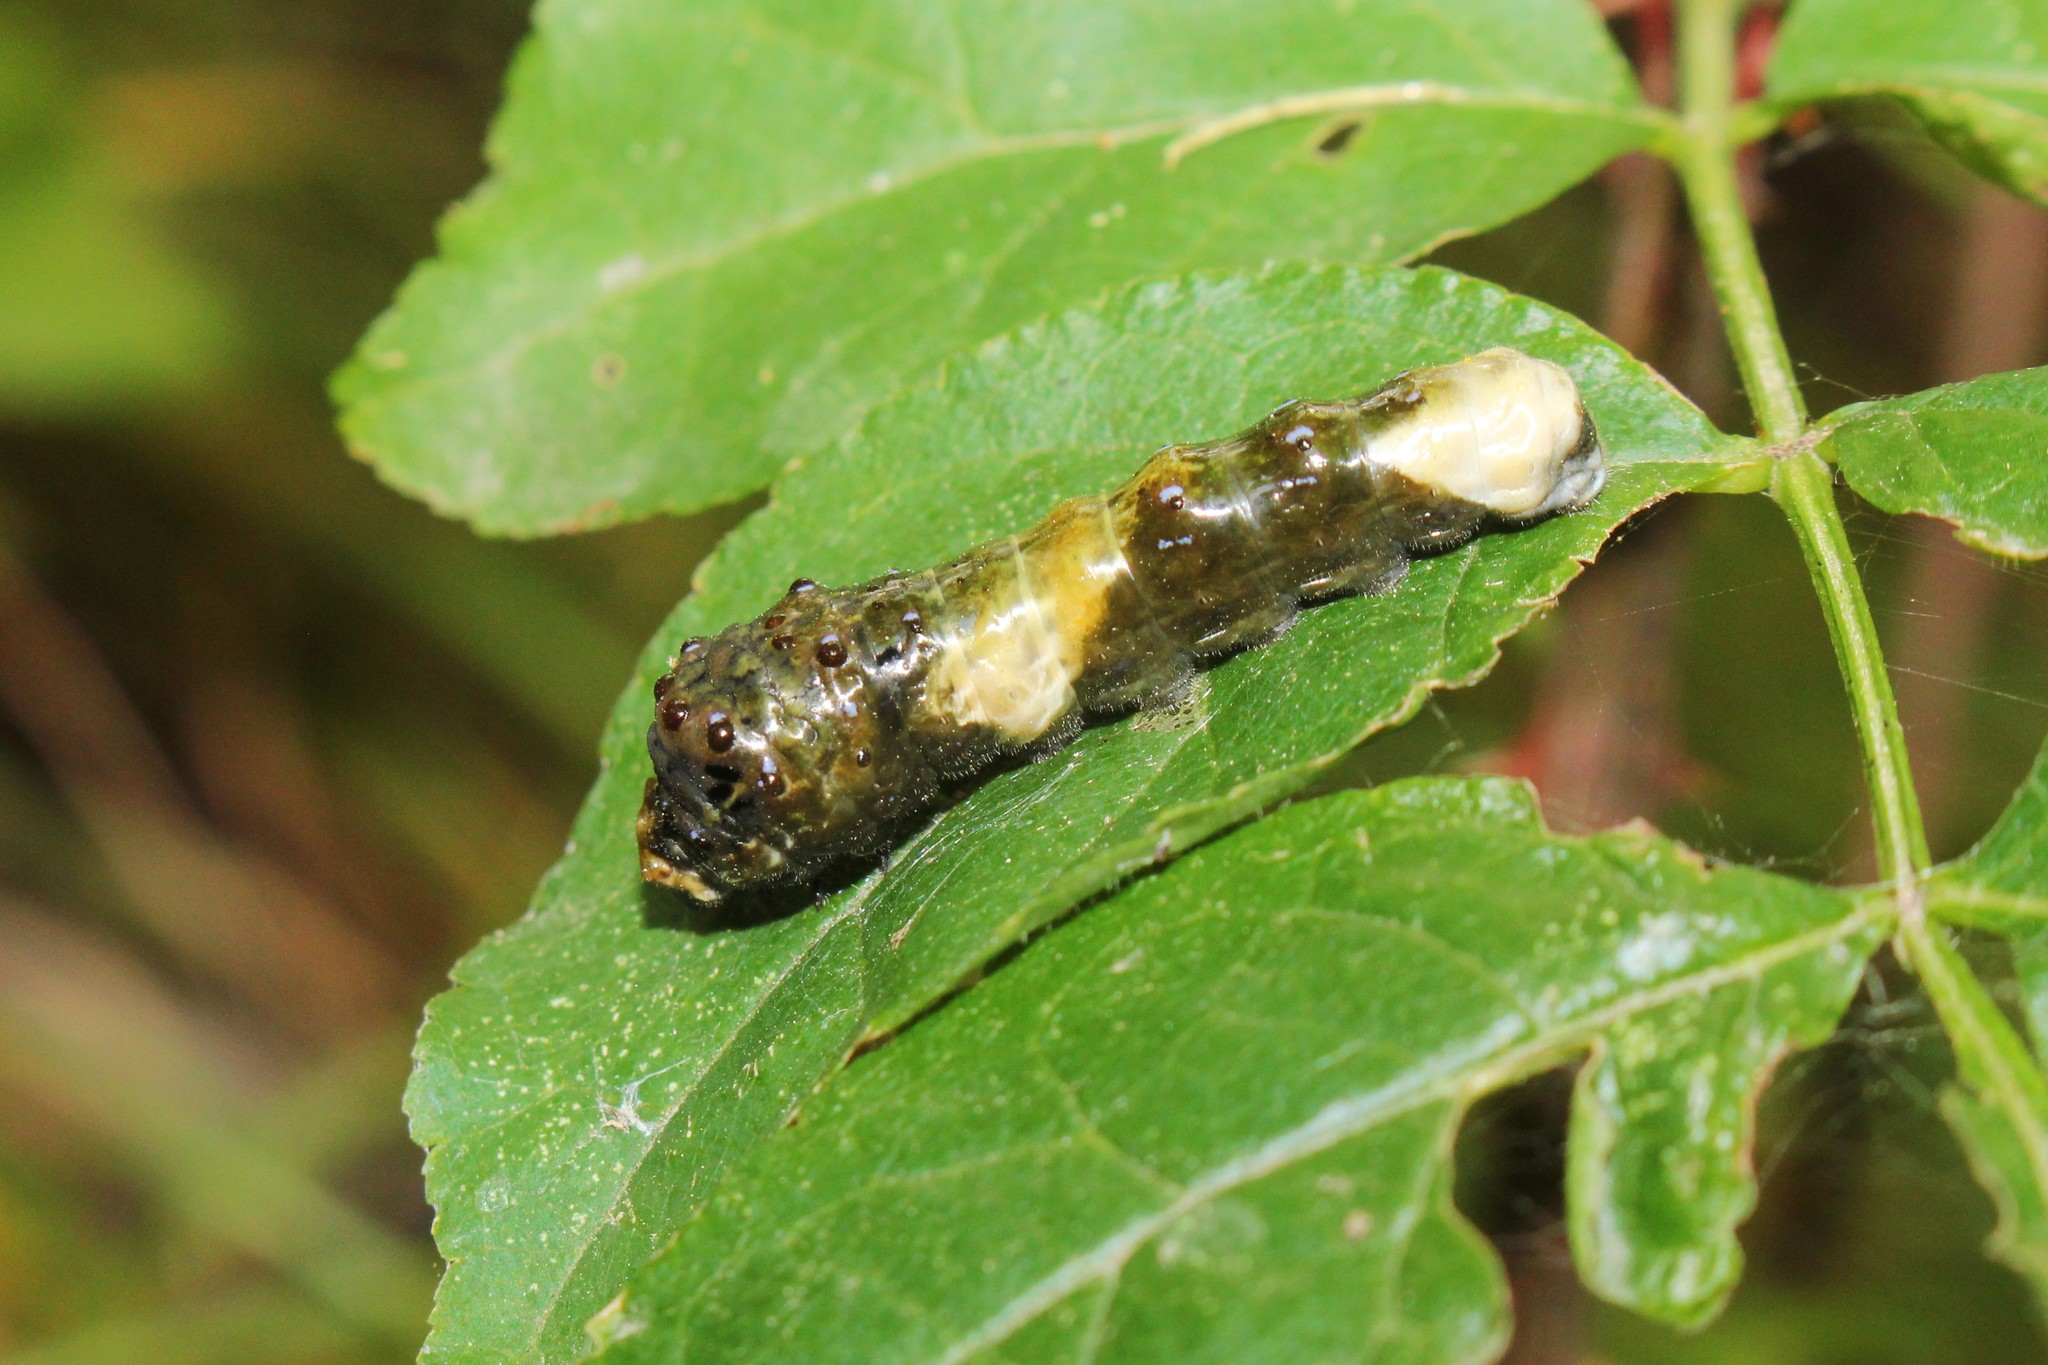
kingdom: Animalia
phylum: Arthropoda
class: Insecta
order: Lepidoptera
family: Papilionidae
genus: Papilio
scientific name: Papilio cresphontes
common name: Giant swallowtail
